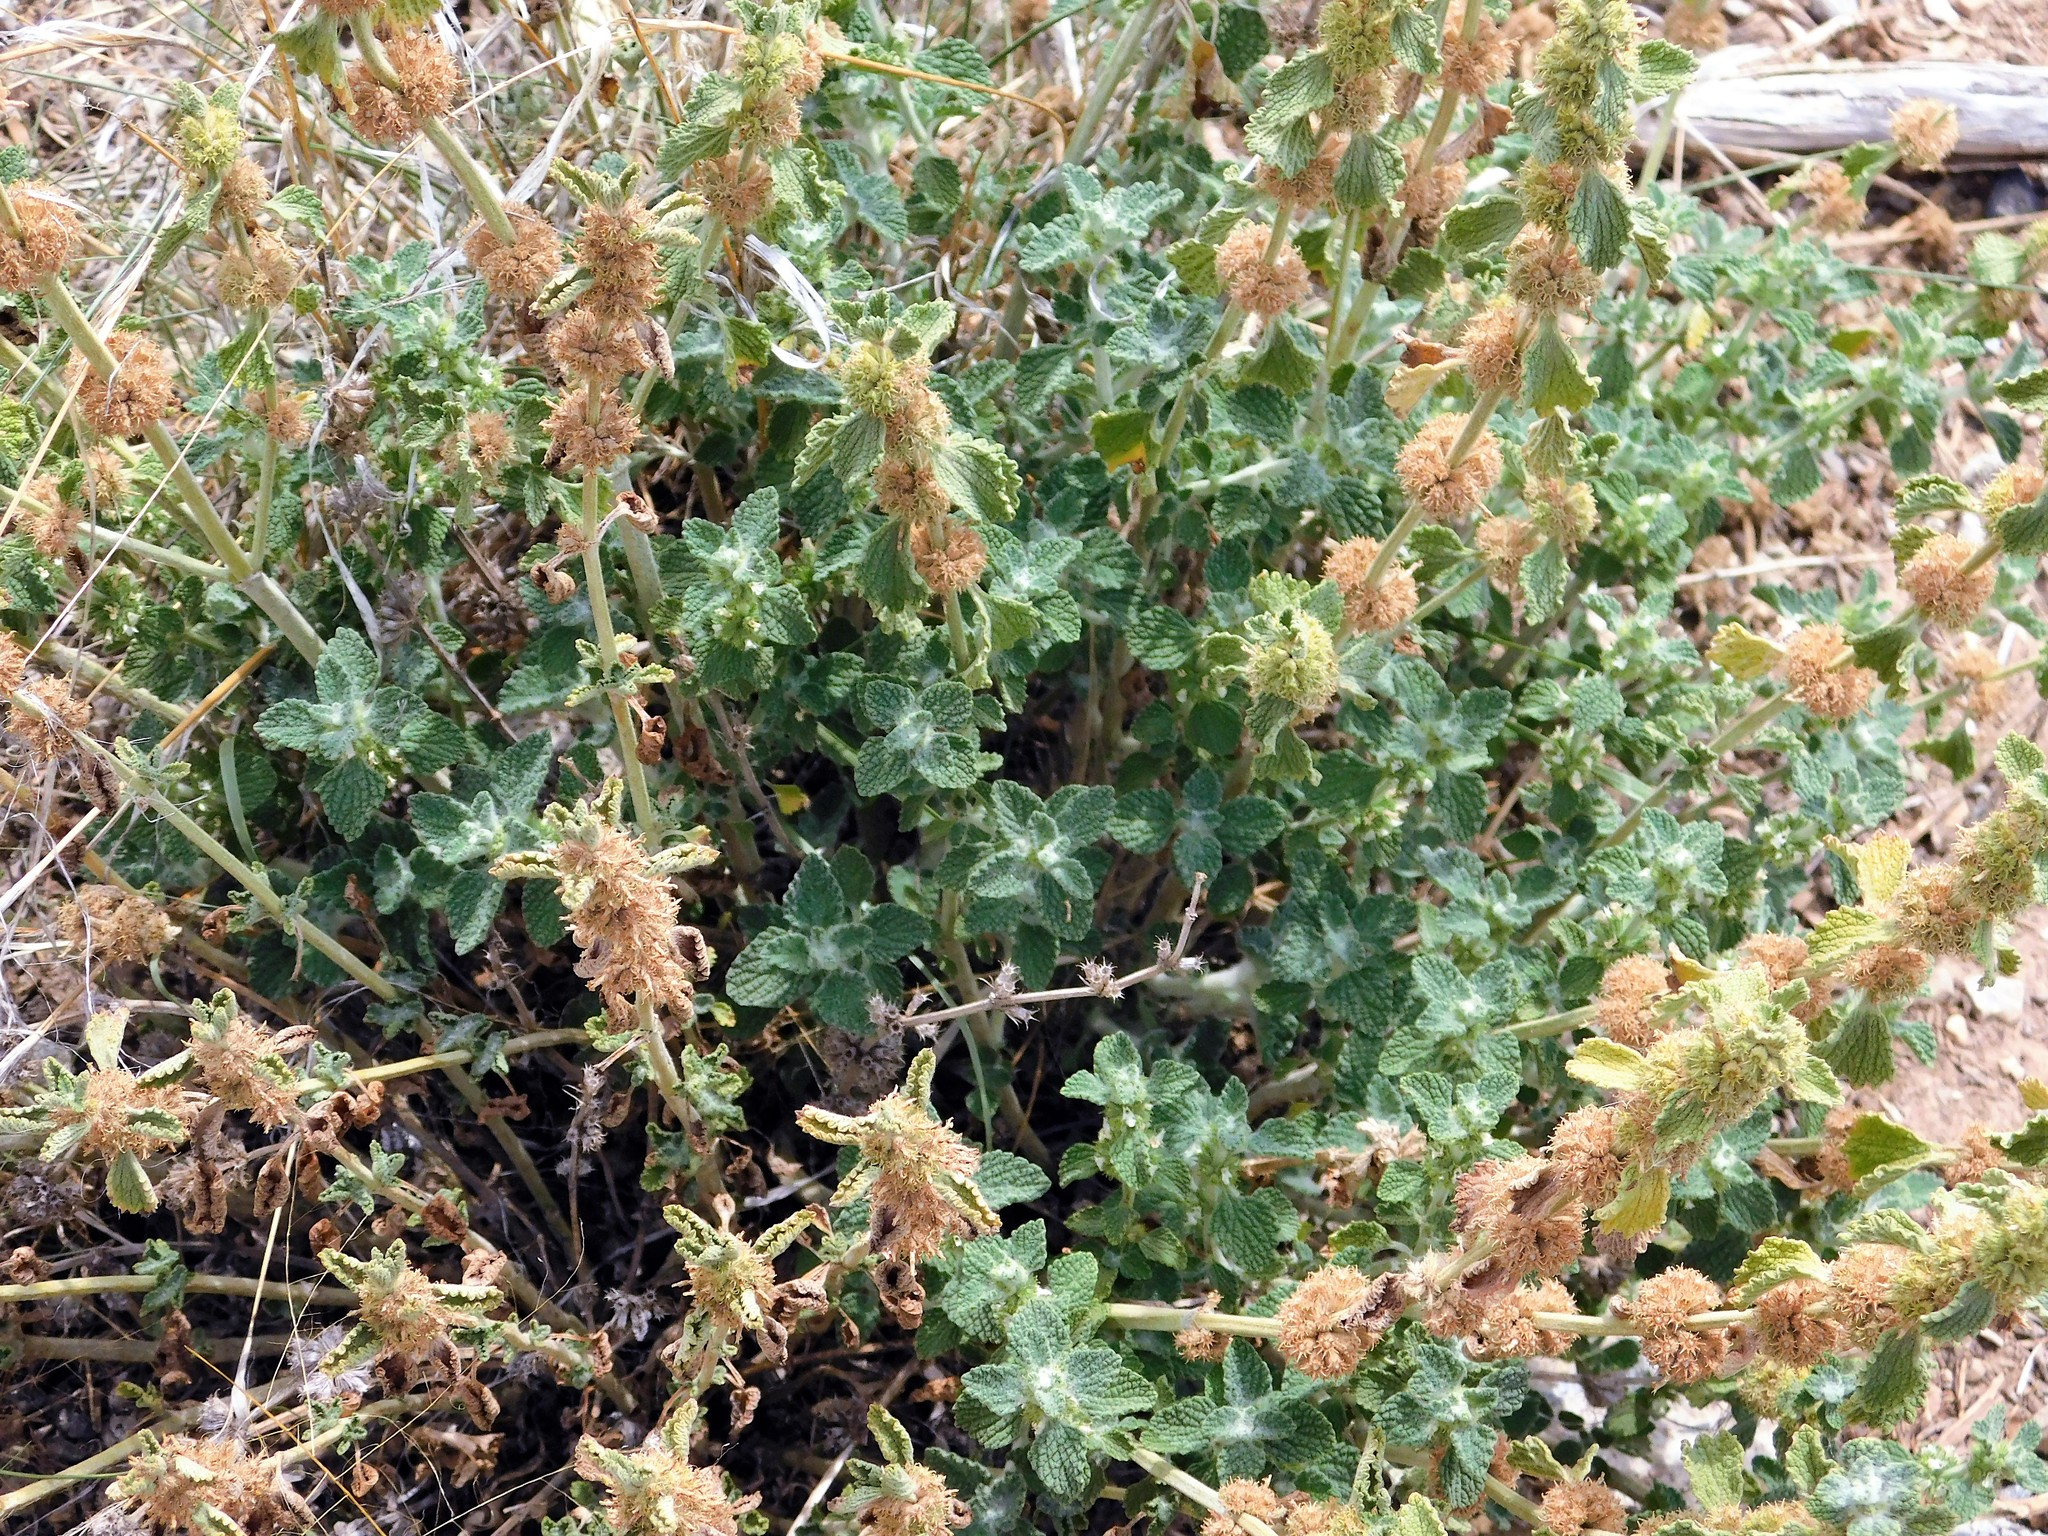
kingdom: Plantae
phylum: Tracheophyta
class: Magnoliopsida
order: Lamiales
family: Lamiaceae
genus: Marrubium
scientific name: Marrubium vulgare
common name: Horehound
